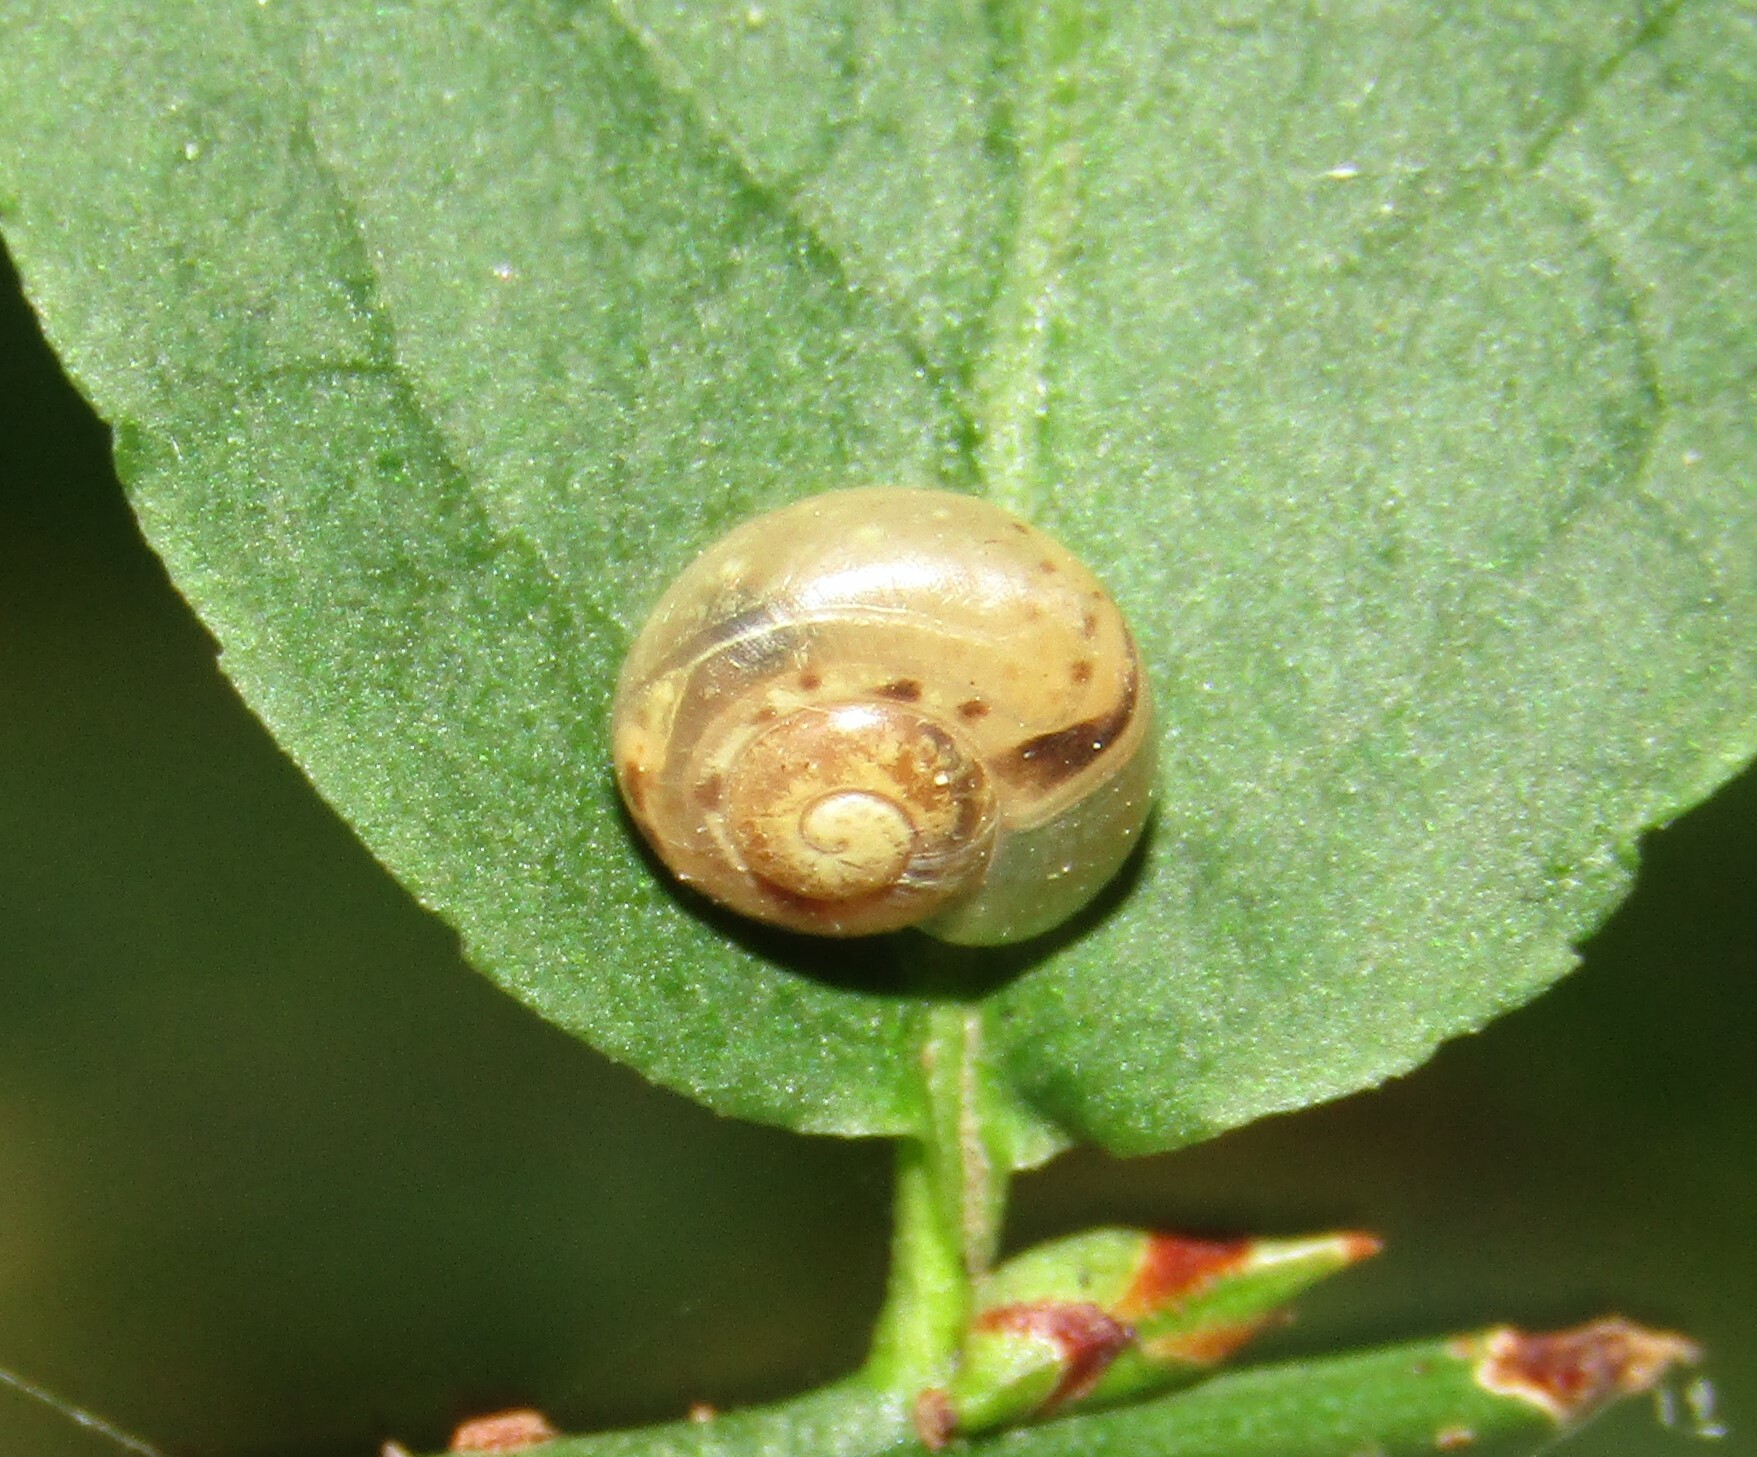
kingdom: Animalia
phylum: Mollusca
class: Gastropoda
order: Stylommatophora
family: Camaenidae
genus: Fruticicola
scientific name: Fruticicola fruticum
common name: Bush snail
